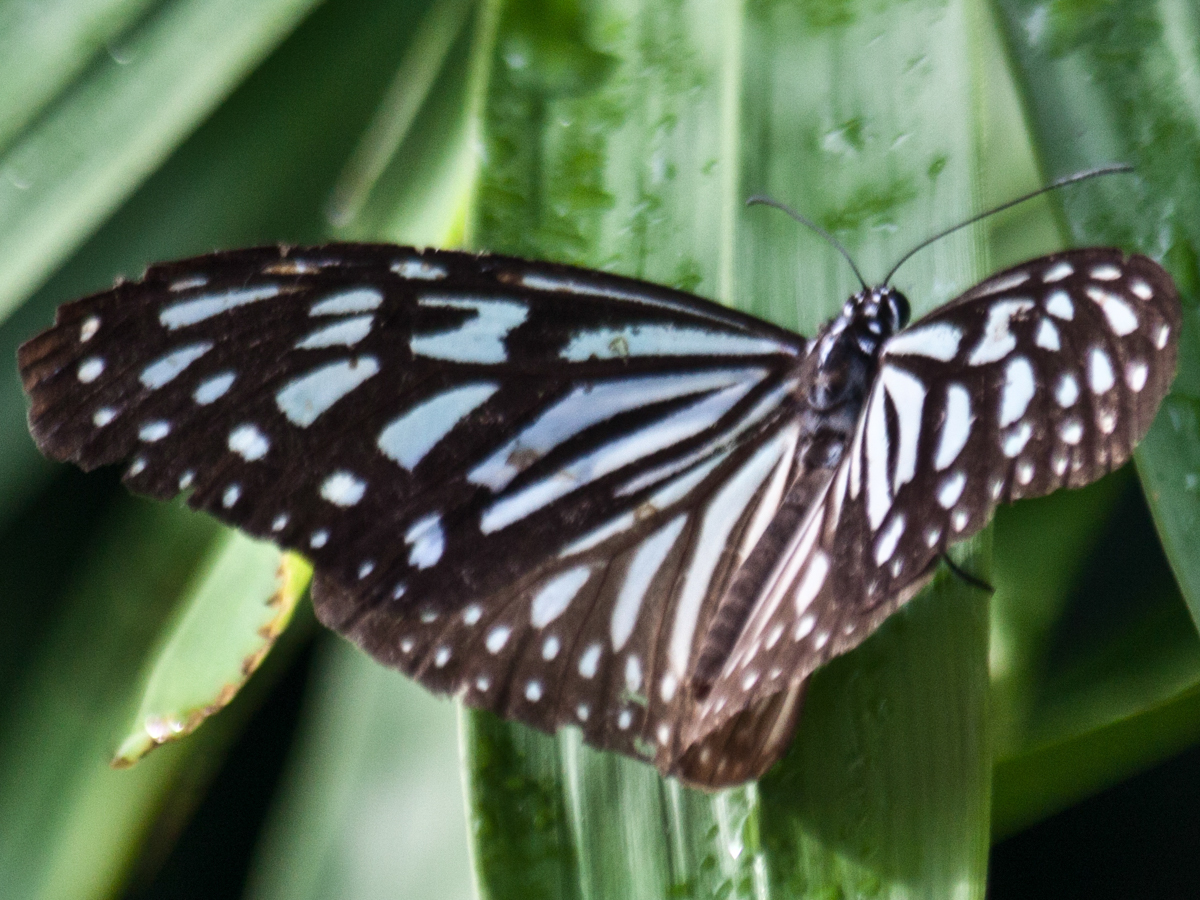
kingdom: Animalia
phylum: Arthropoda
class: Insecta
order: Lepidoptera
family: Nymphalidae
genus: Ideopsis
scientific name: Ideopsis vulgaris
